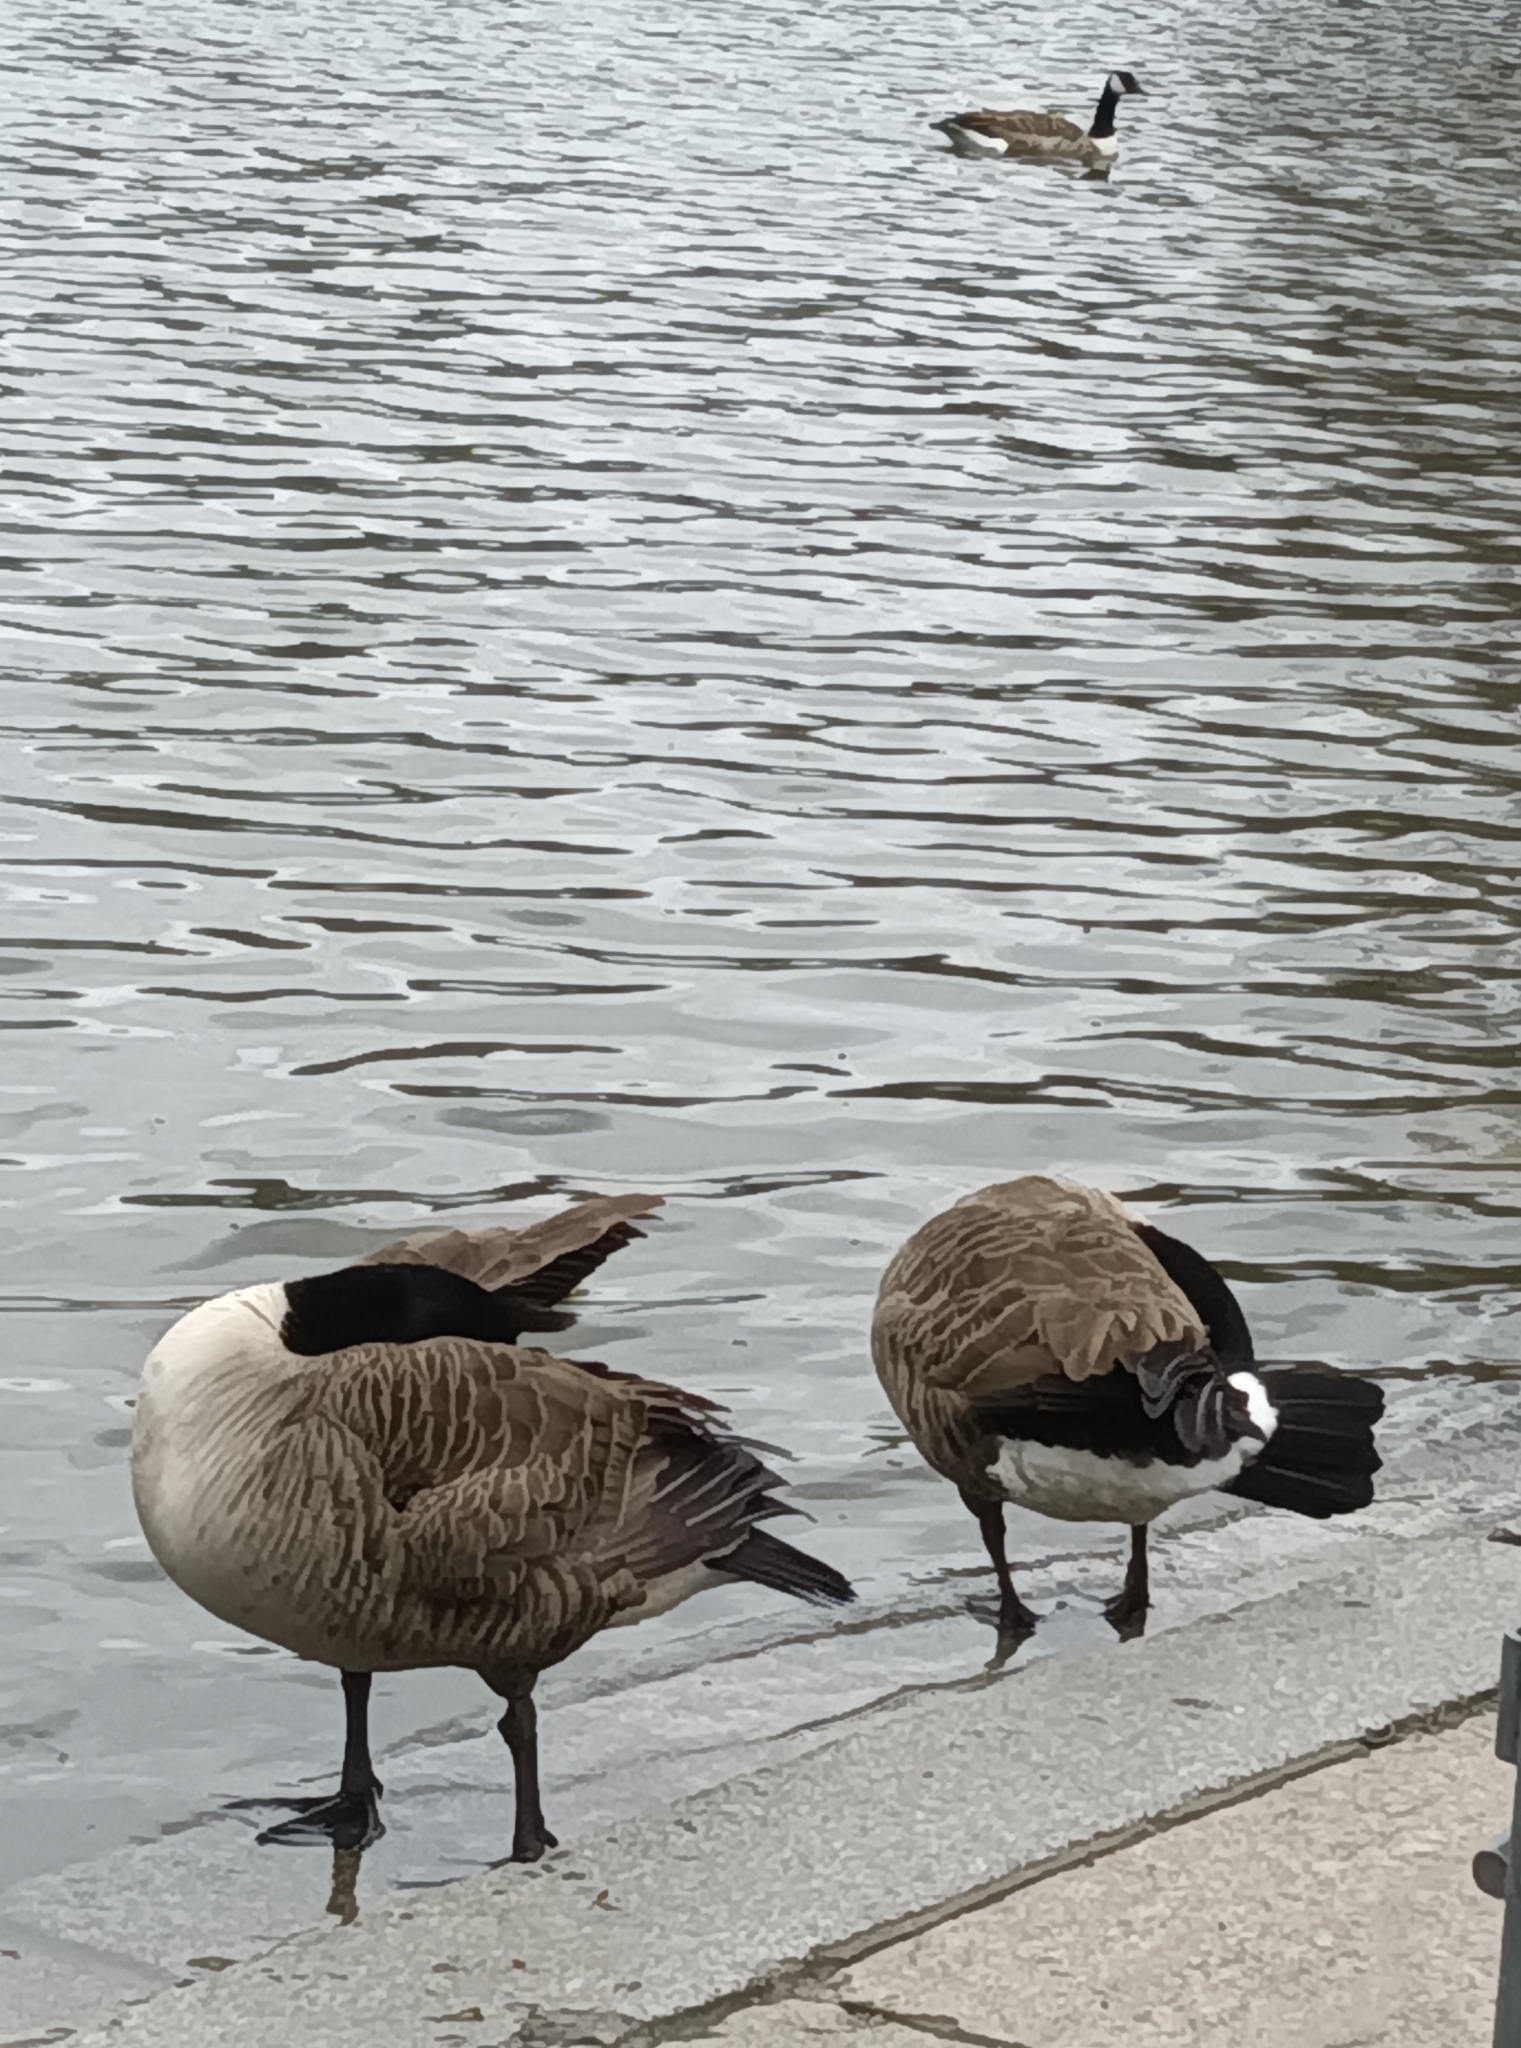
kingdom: Animalia
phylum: Chordata
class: Aves
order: Anseriformes
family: Anatidae
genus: Branta
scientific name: Branta canadensis
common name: Canada goose
